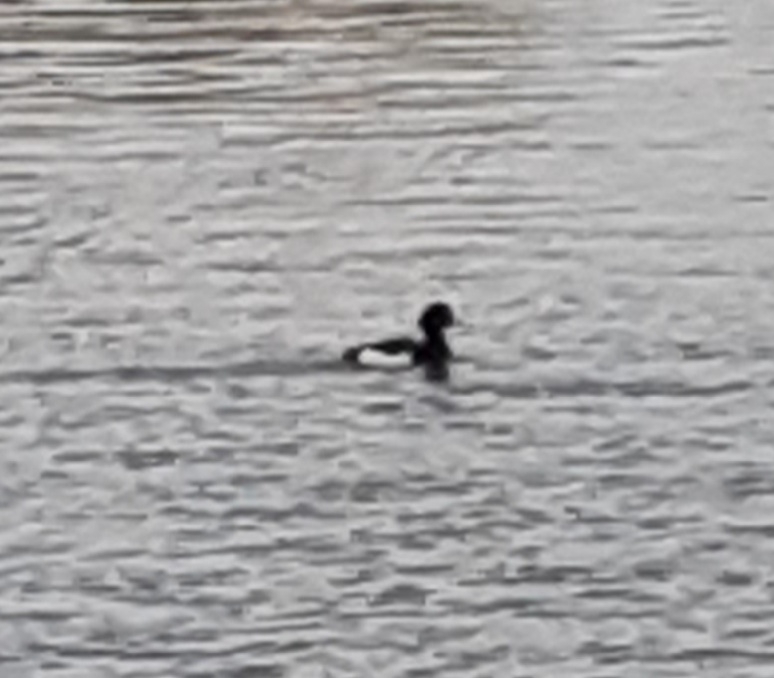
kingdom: Animalia
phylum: Chordata
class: Aves
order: Anseriformes
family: Anatidae
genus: Aythya
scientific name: Aythya fuligula
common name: Tufted duck
